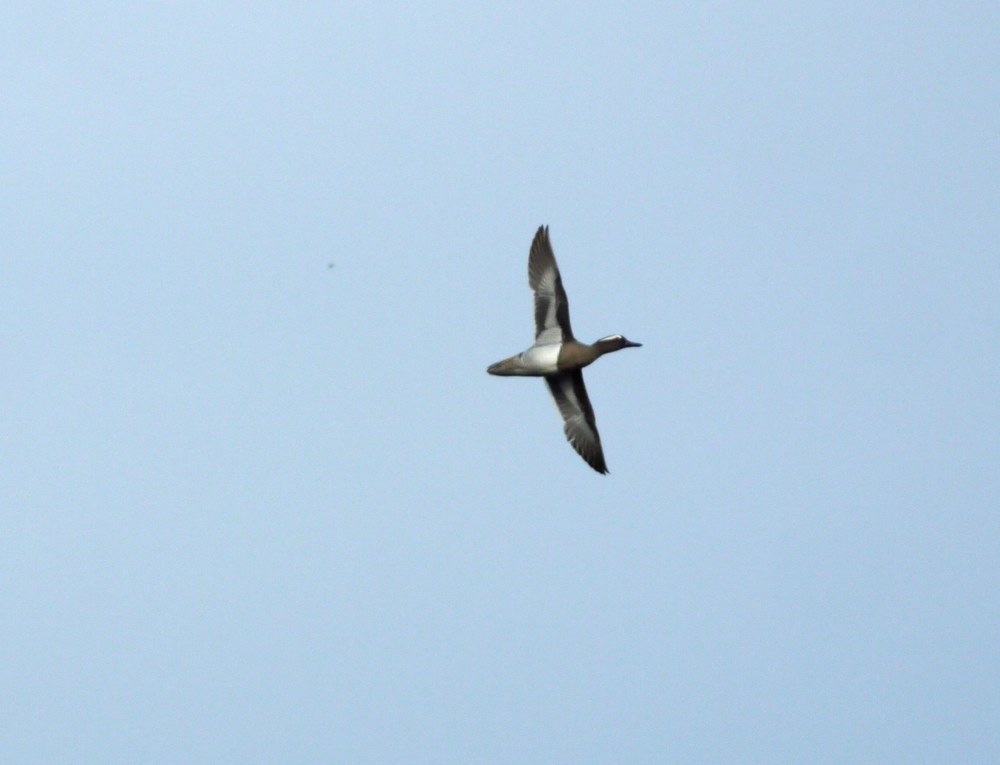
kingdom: Animalia
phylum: Chordata
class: Aves
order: Anseriformes
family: Anatidae
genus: Spatula
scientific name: Spatula querquedula
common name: Garganey
